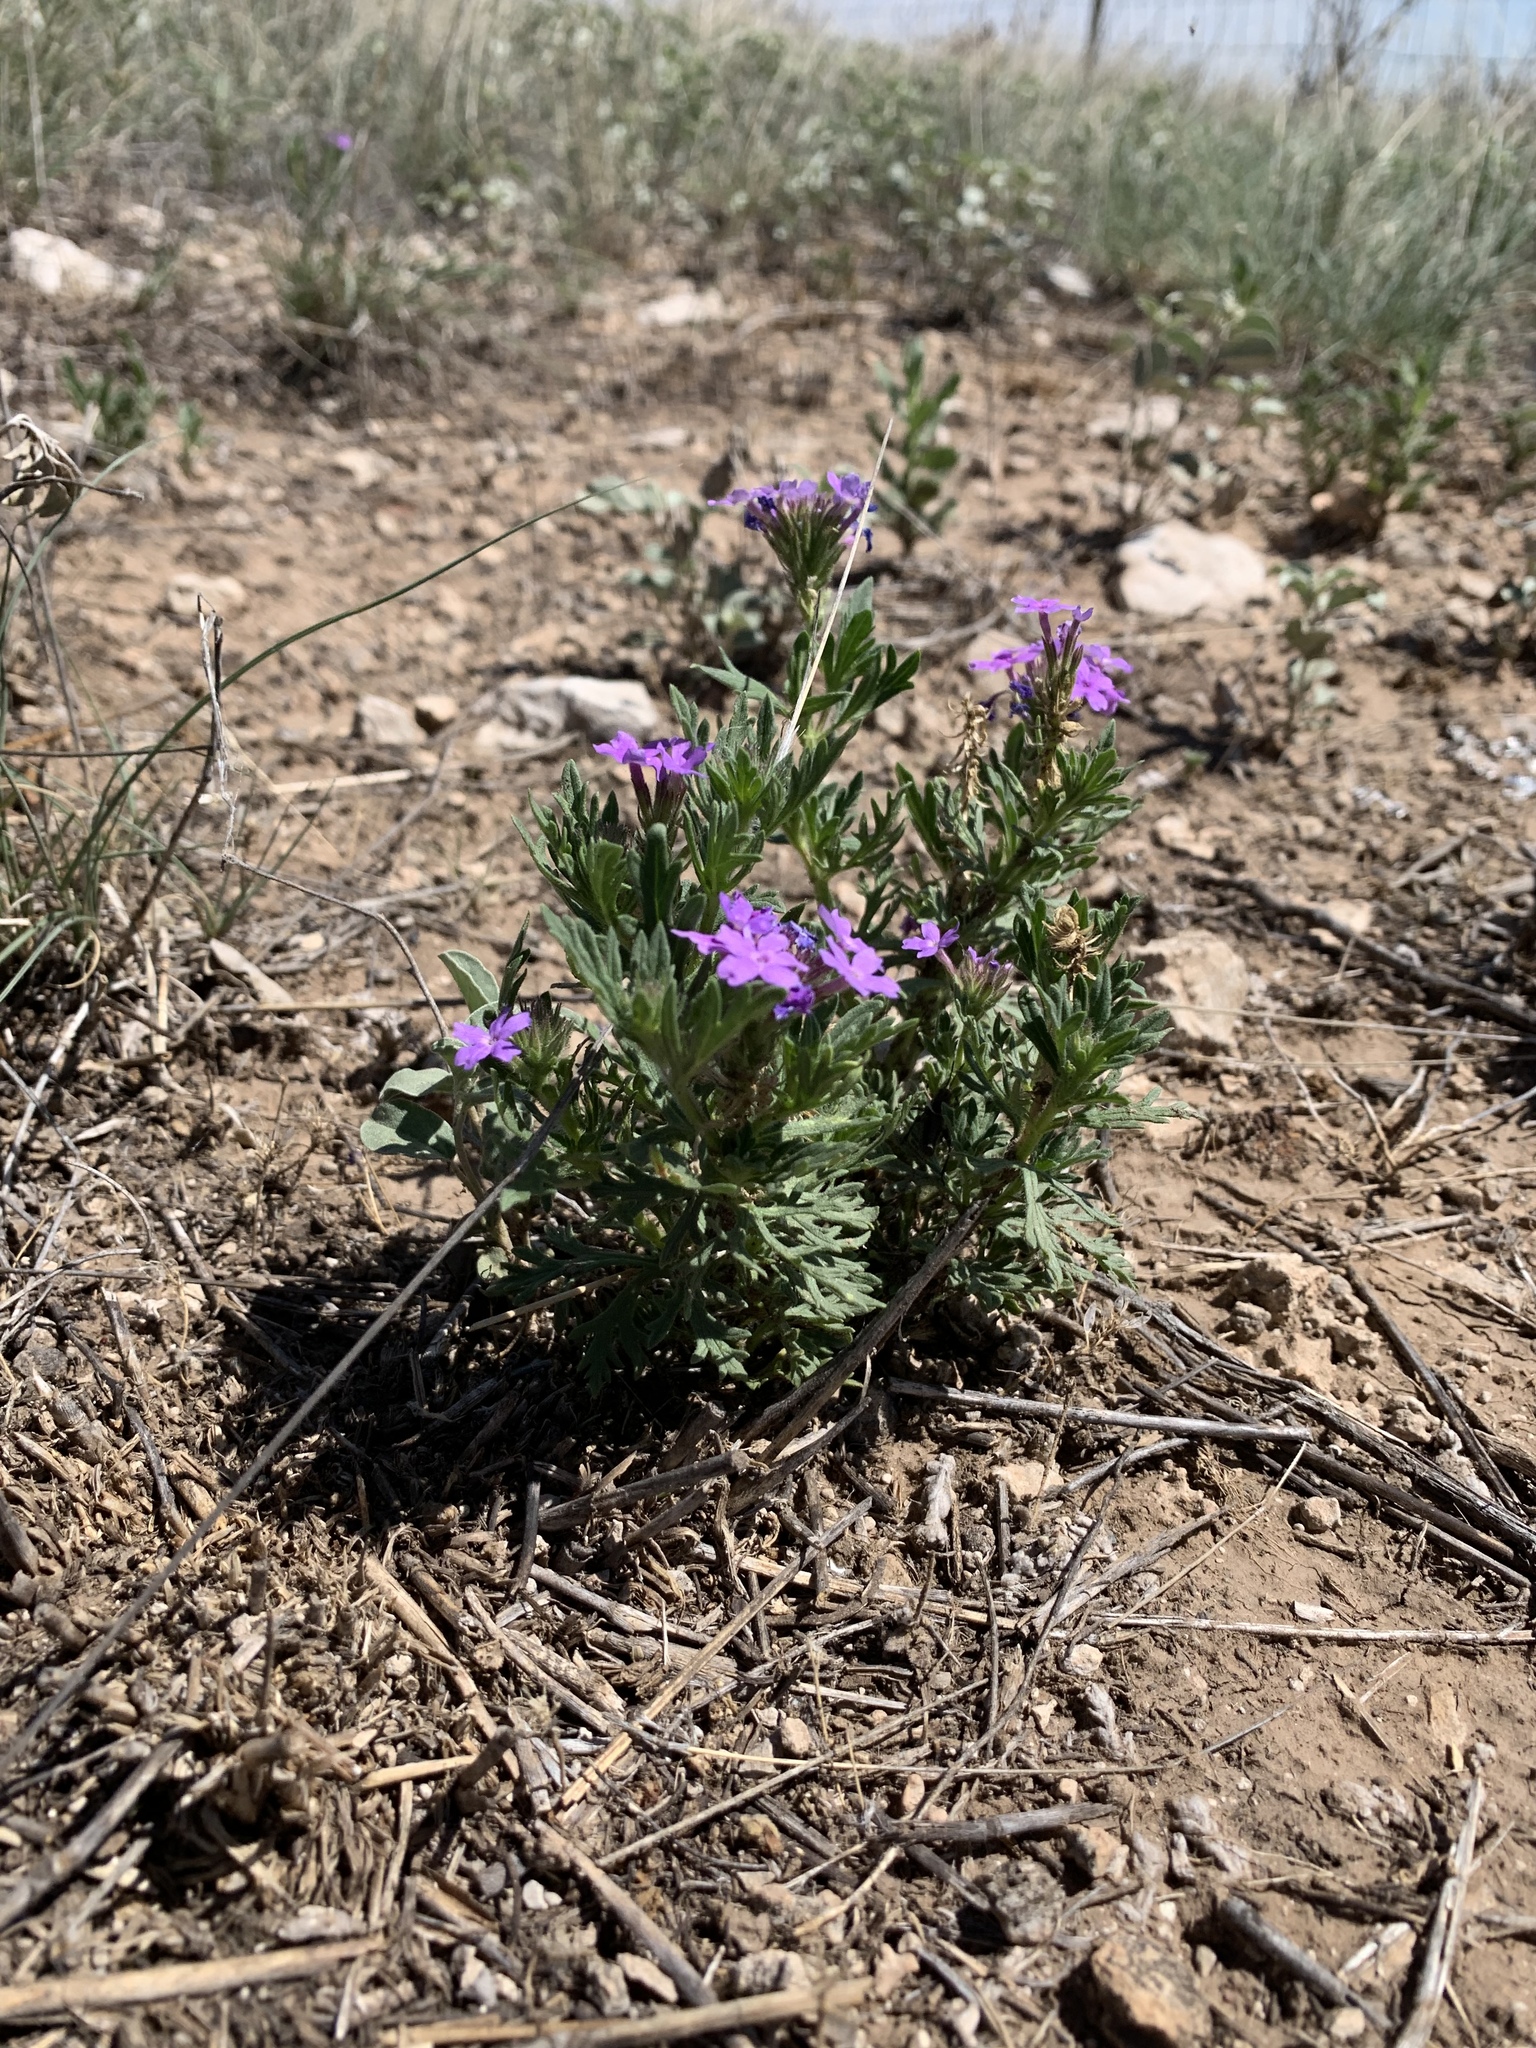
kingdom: Plantae
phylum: Tracheophyta
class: Magnoliopsida
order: Lamiales
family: Verbenaceae
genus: Verbena
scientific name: Verbena bipinnatifida
